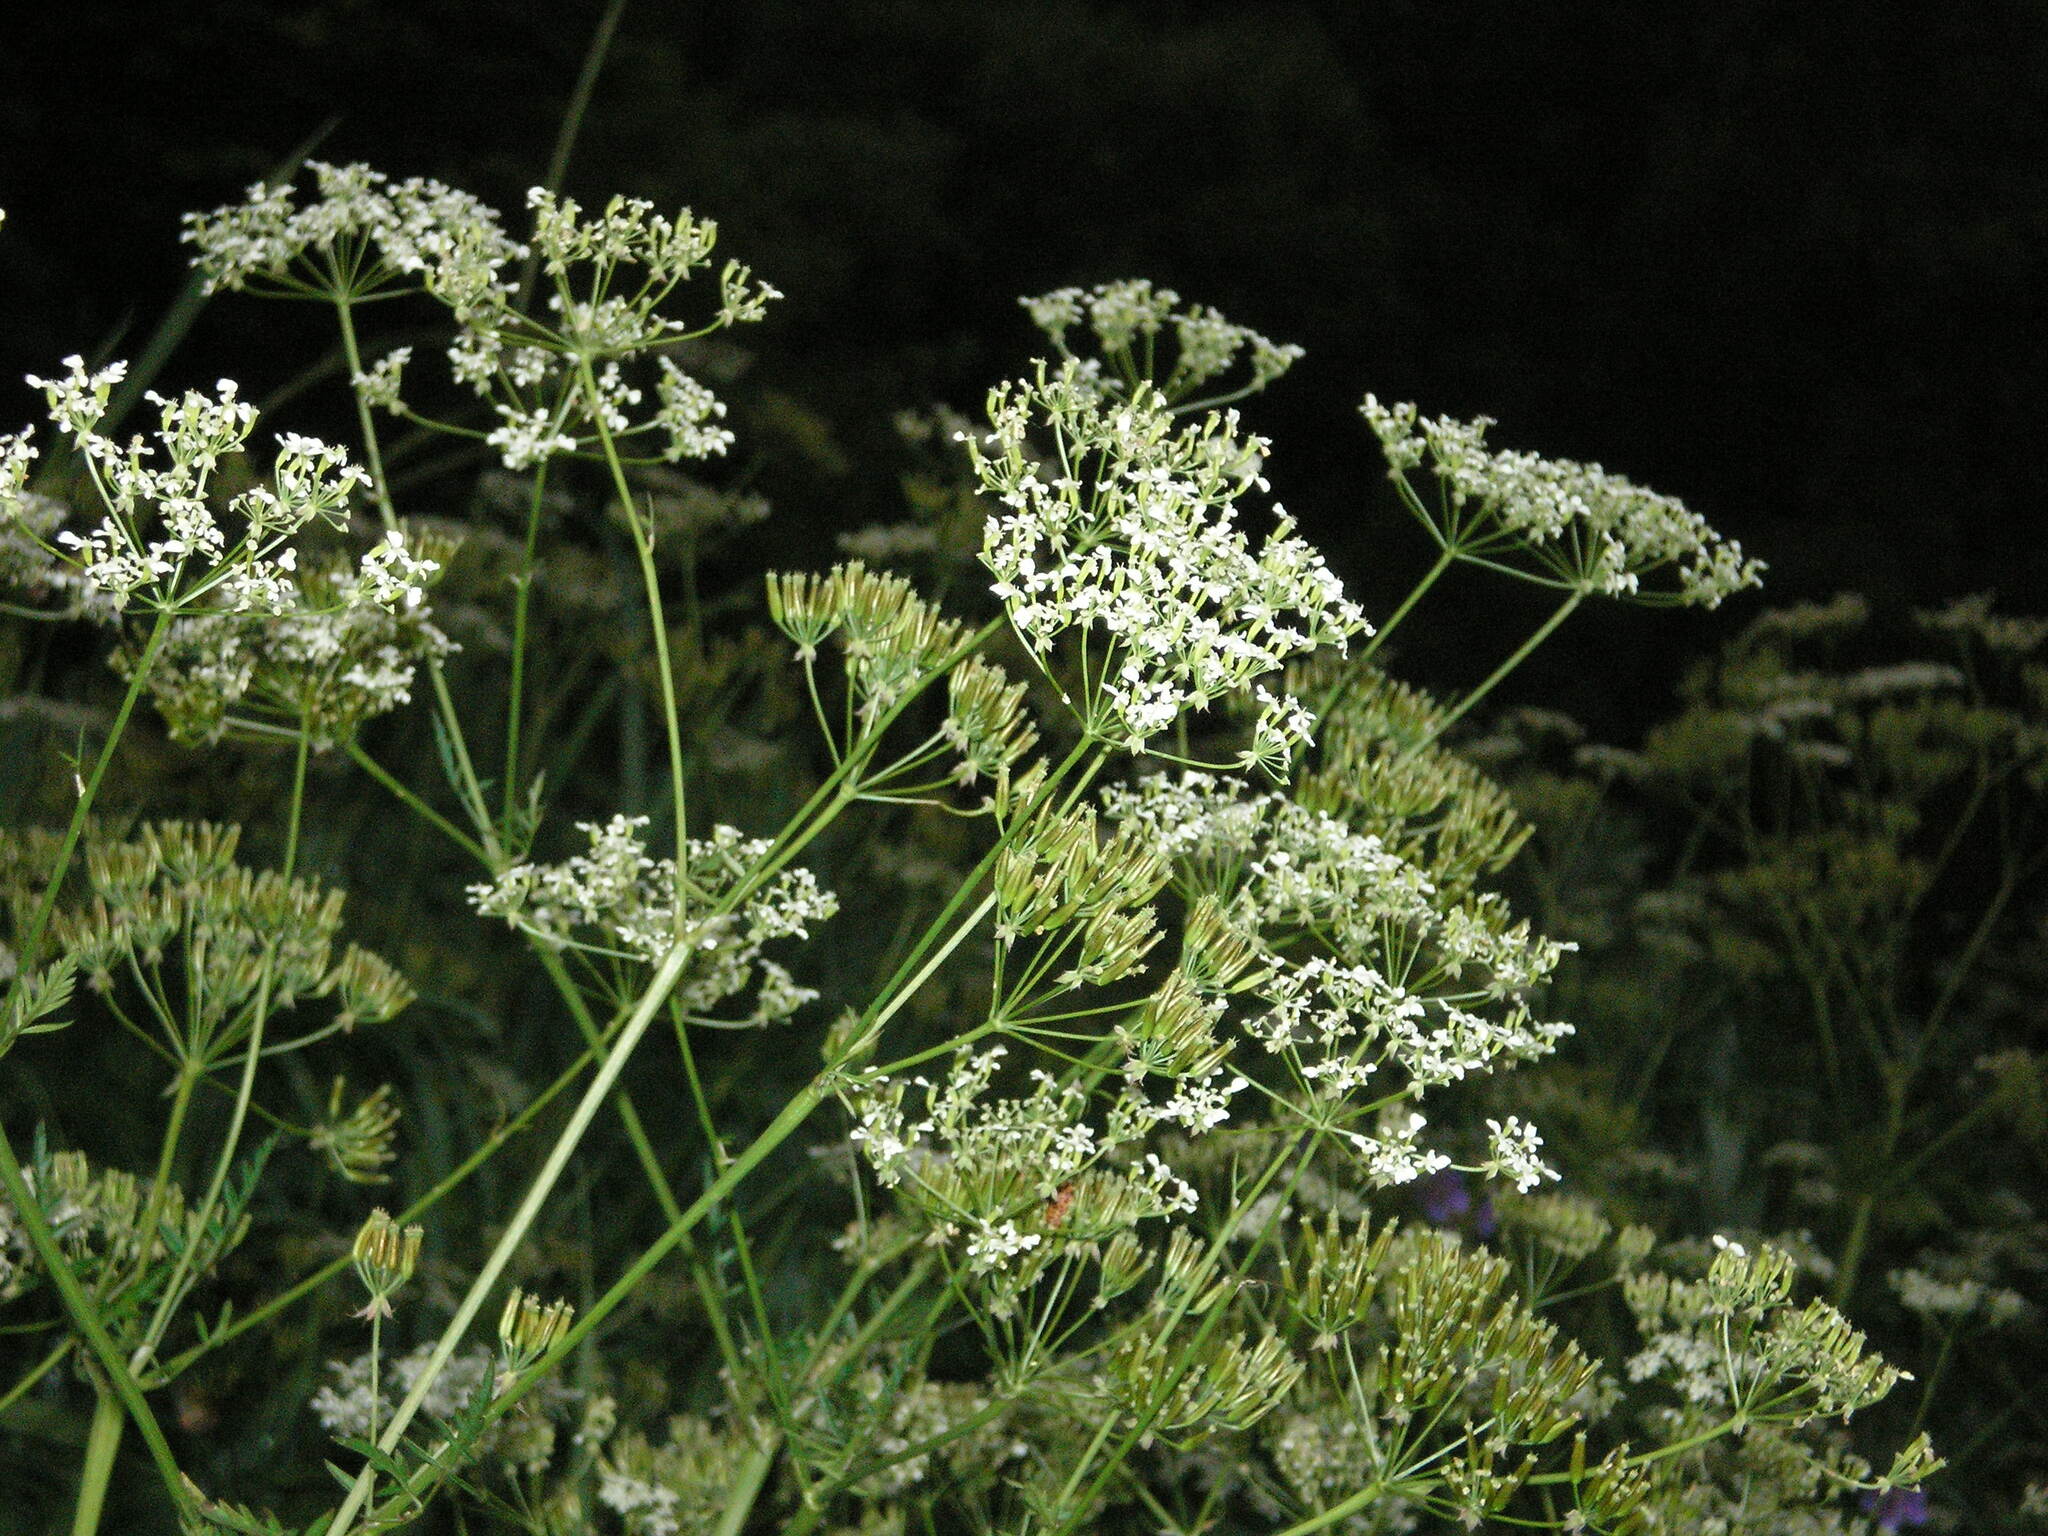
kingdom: Plantae
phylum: Tracheophyta
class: Magnoliopsida
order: Apiales
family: Apiaceae
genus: Anthriscus
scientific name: Anthriscus sylvestris
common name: Cow parsley
